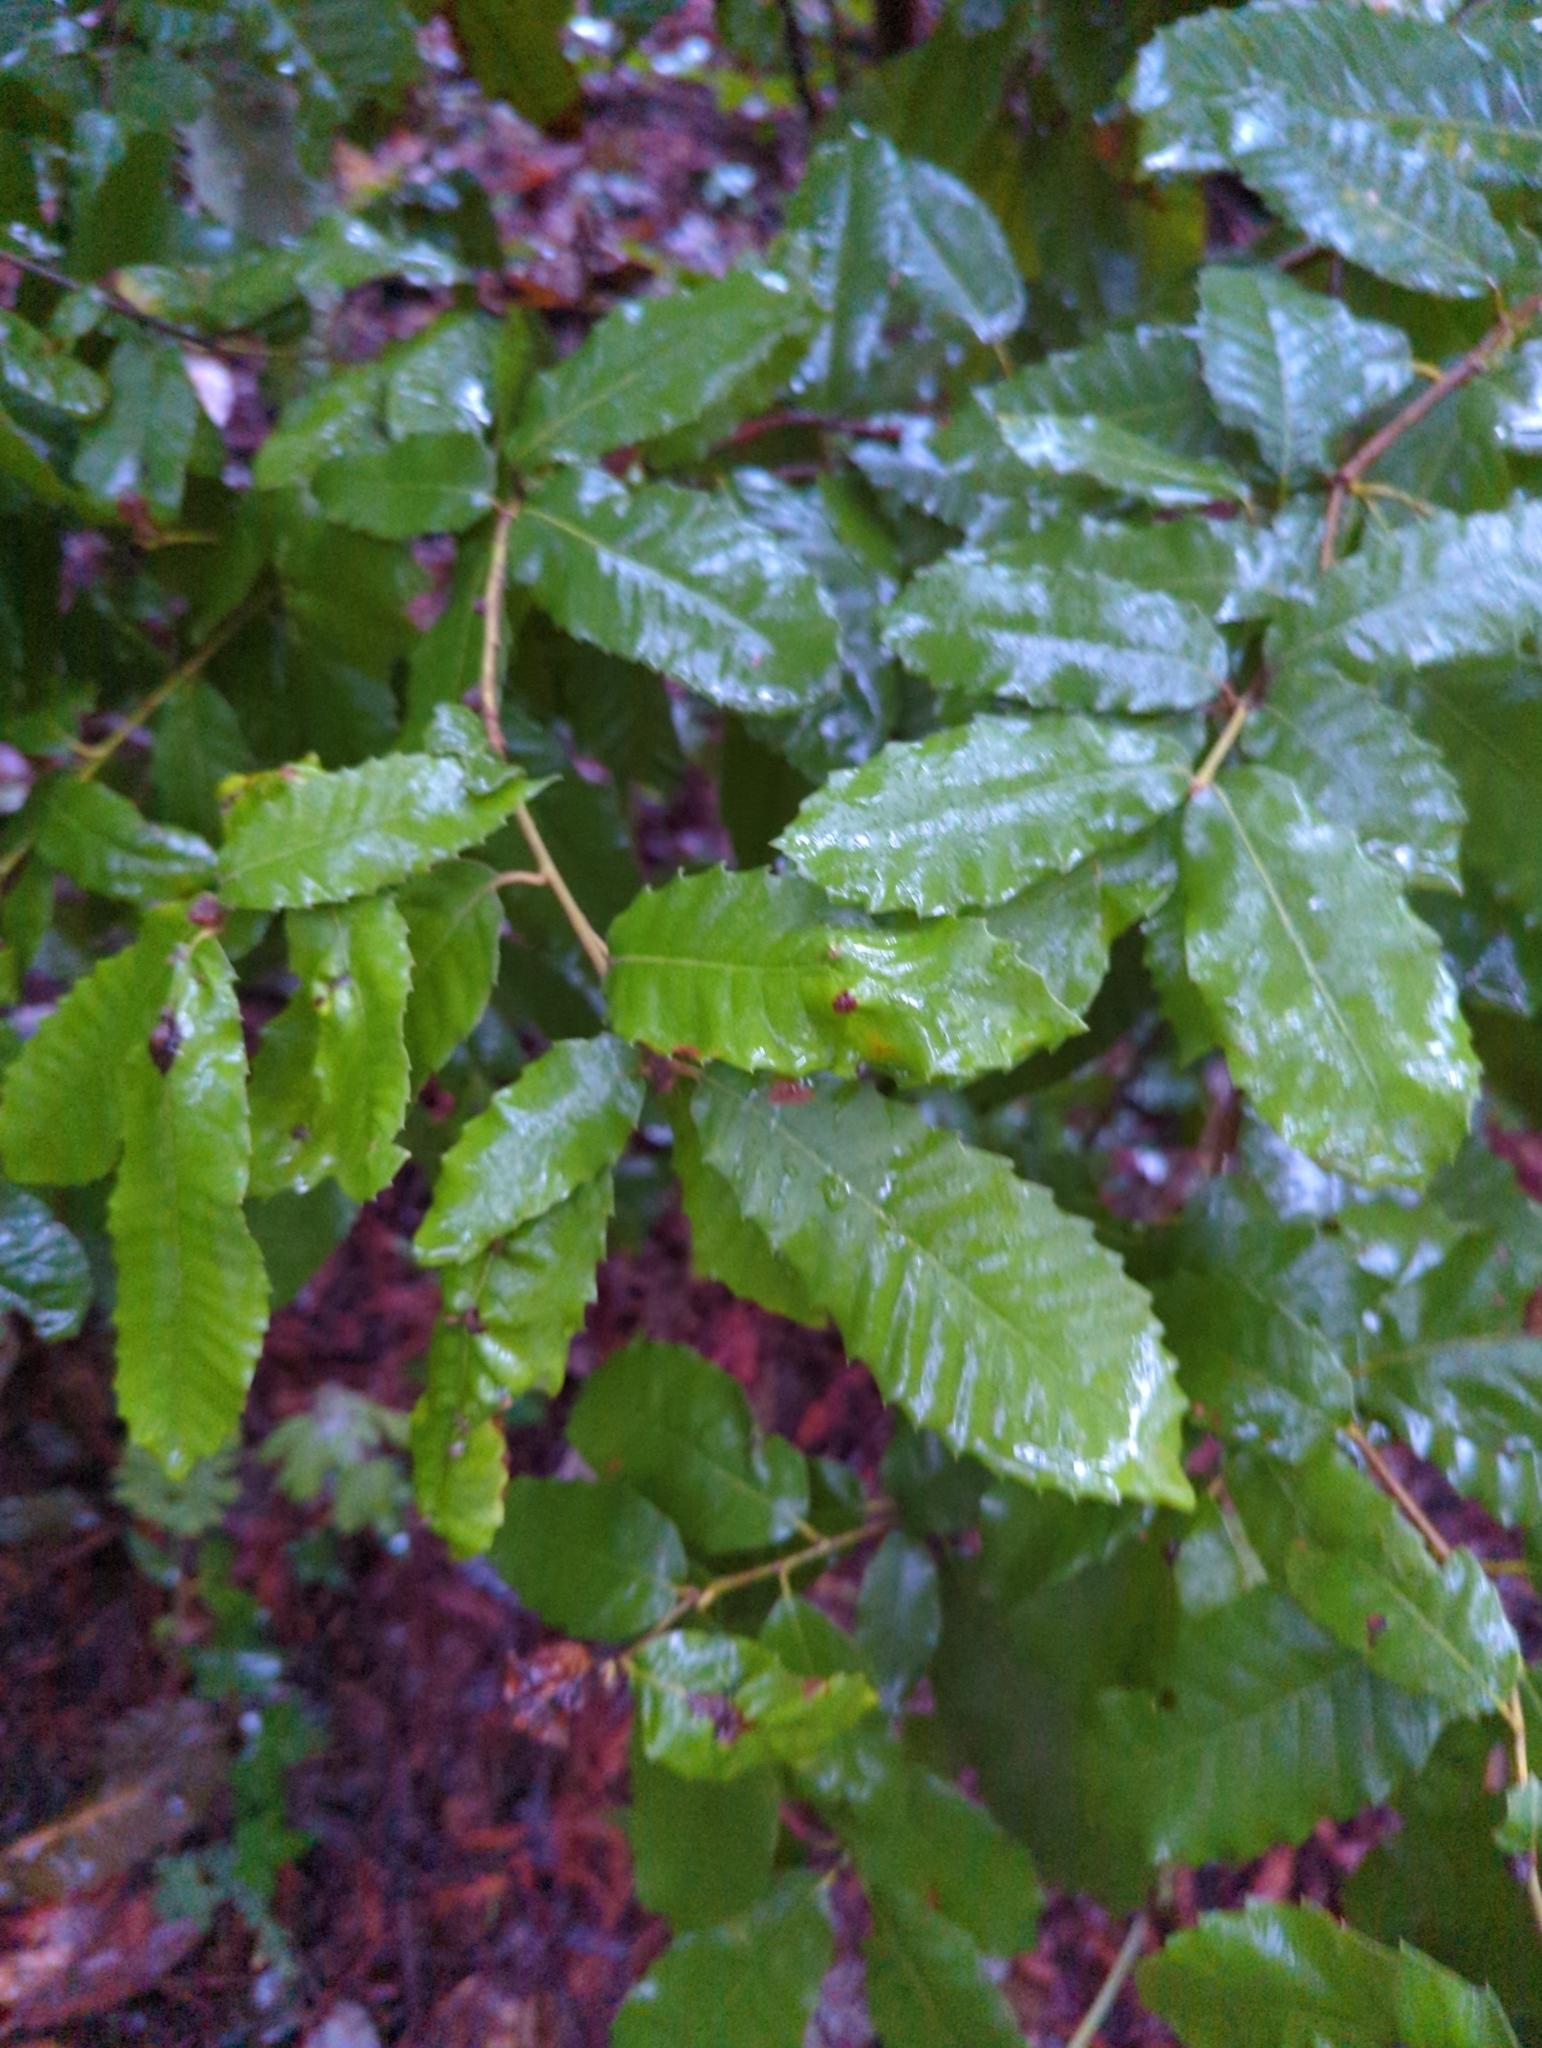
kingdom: Plantae
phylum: Tracheophyta
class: Magnoliopsida
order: Fagales
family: Fagaceae
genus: Notholithocarpus
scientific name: Notholithocarpus densiflorus
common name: Tan bark oak
